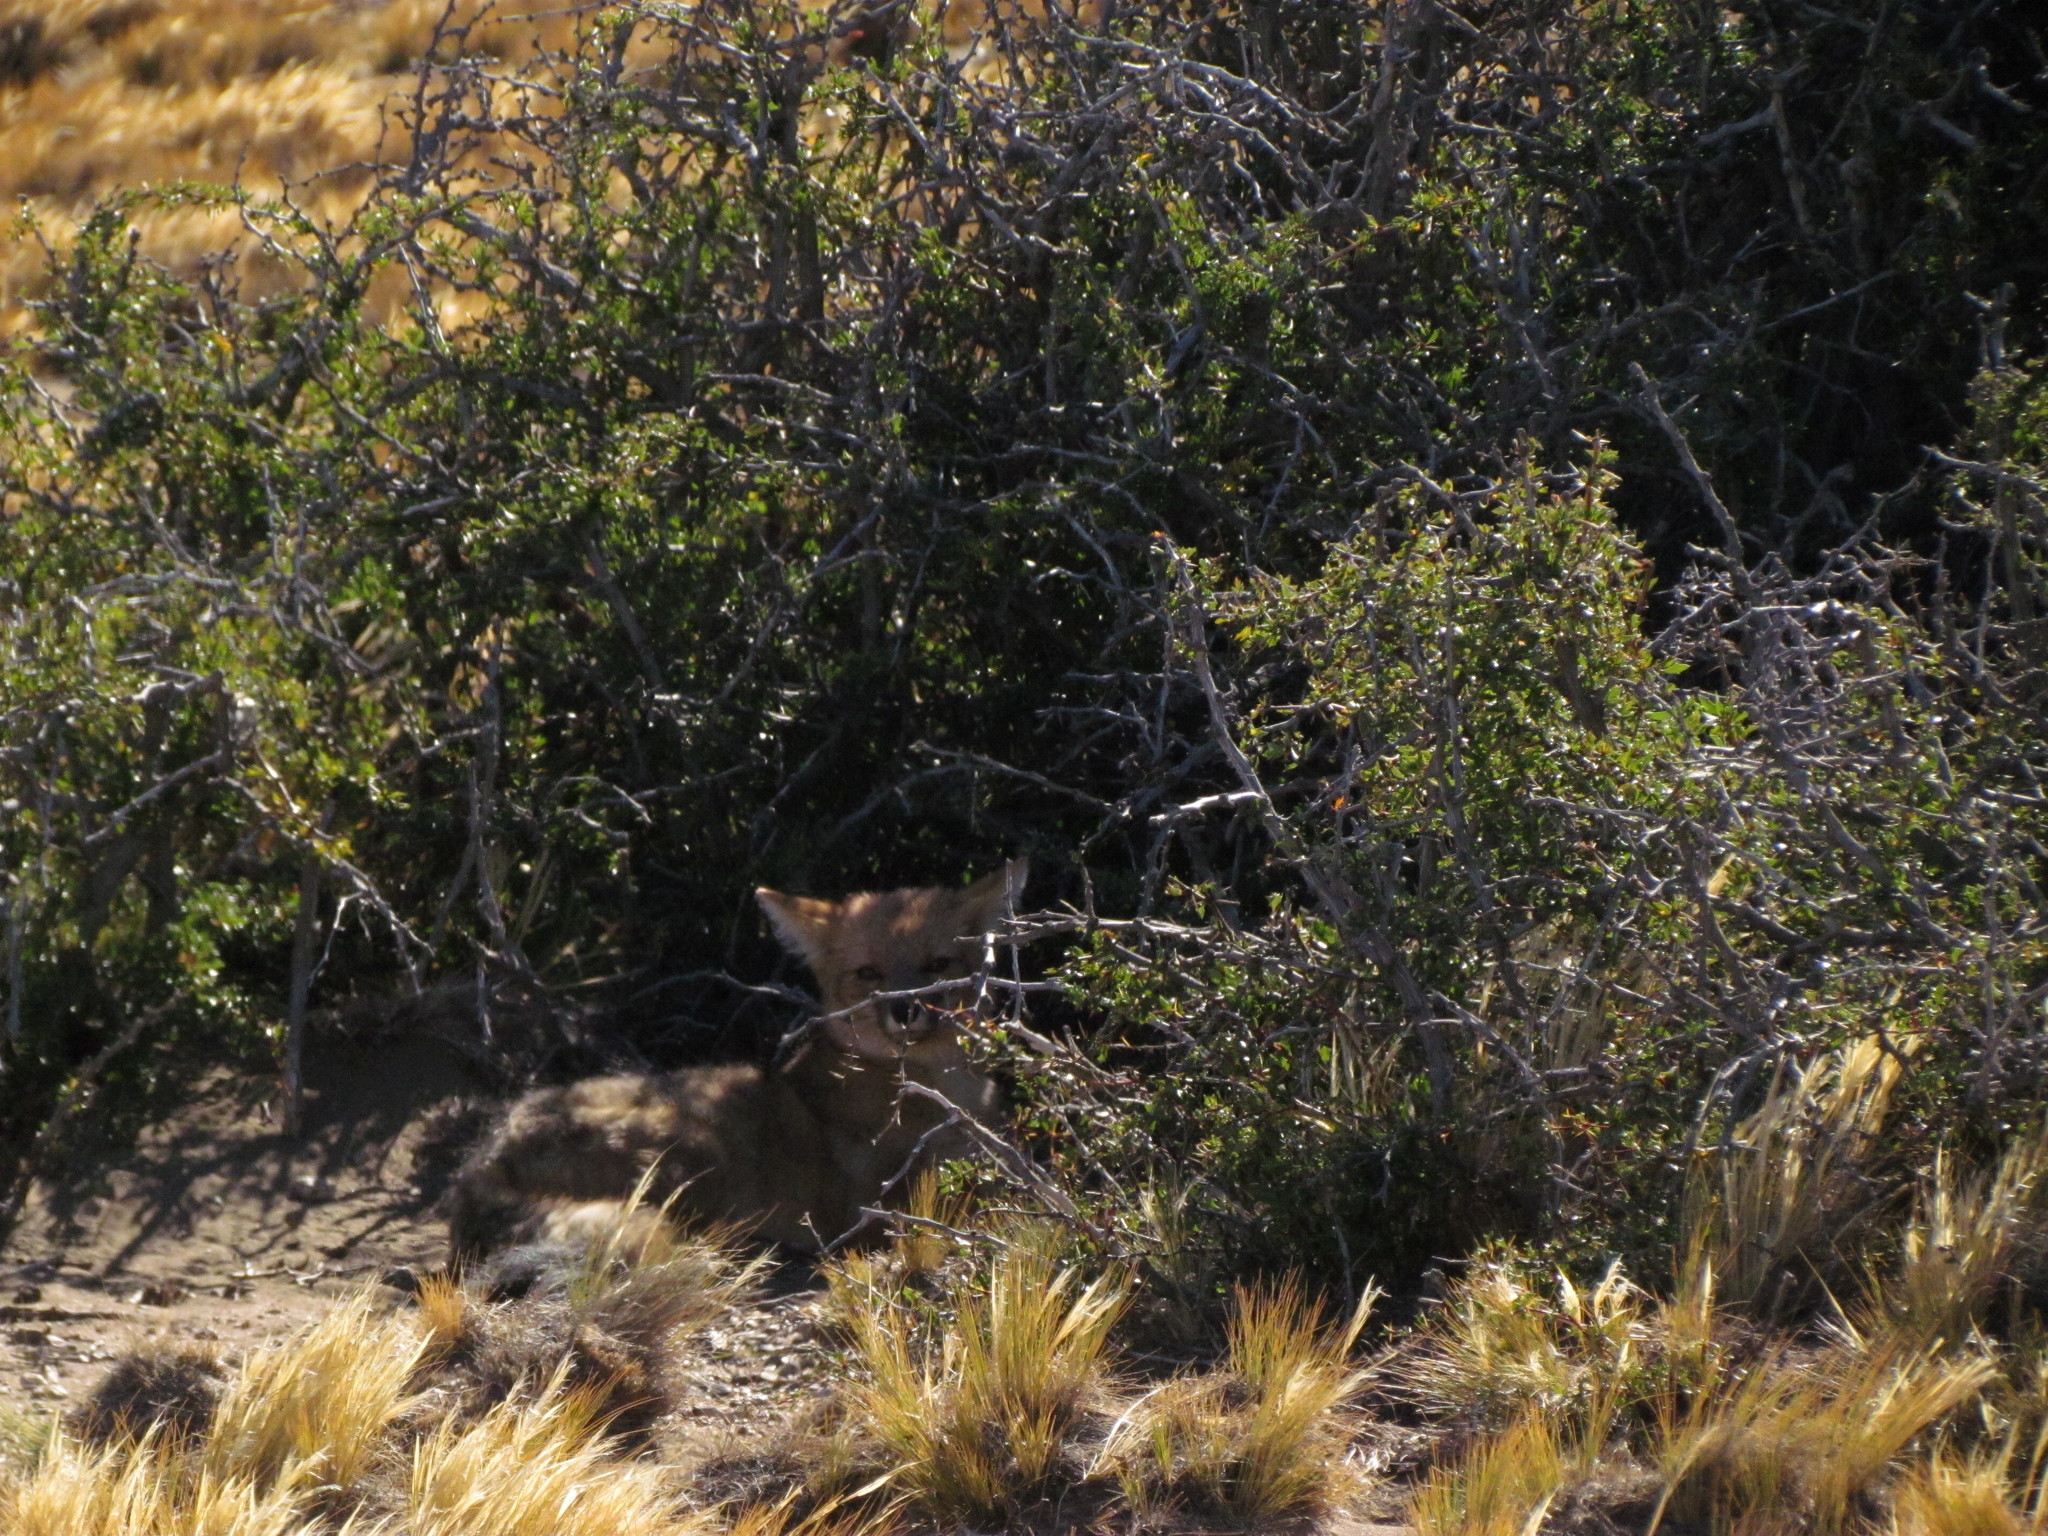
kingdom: Animalia
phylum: Chordata
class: Mammalia
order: Carnivora
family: Canidae
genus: Lycalopex
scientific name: Lycalopex culpaeus
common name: Culpeo
